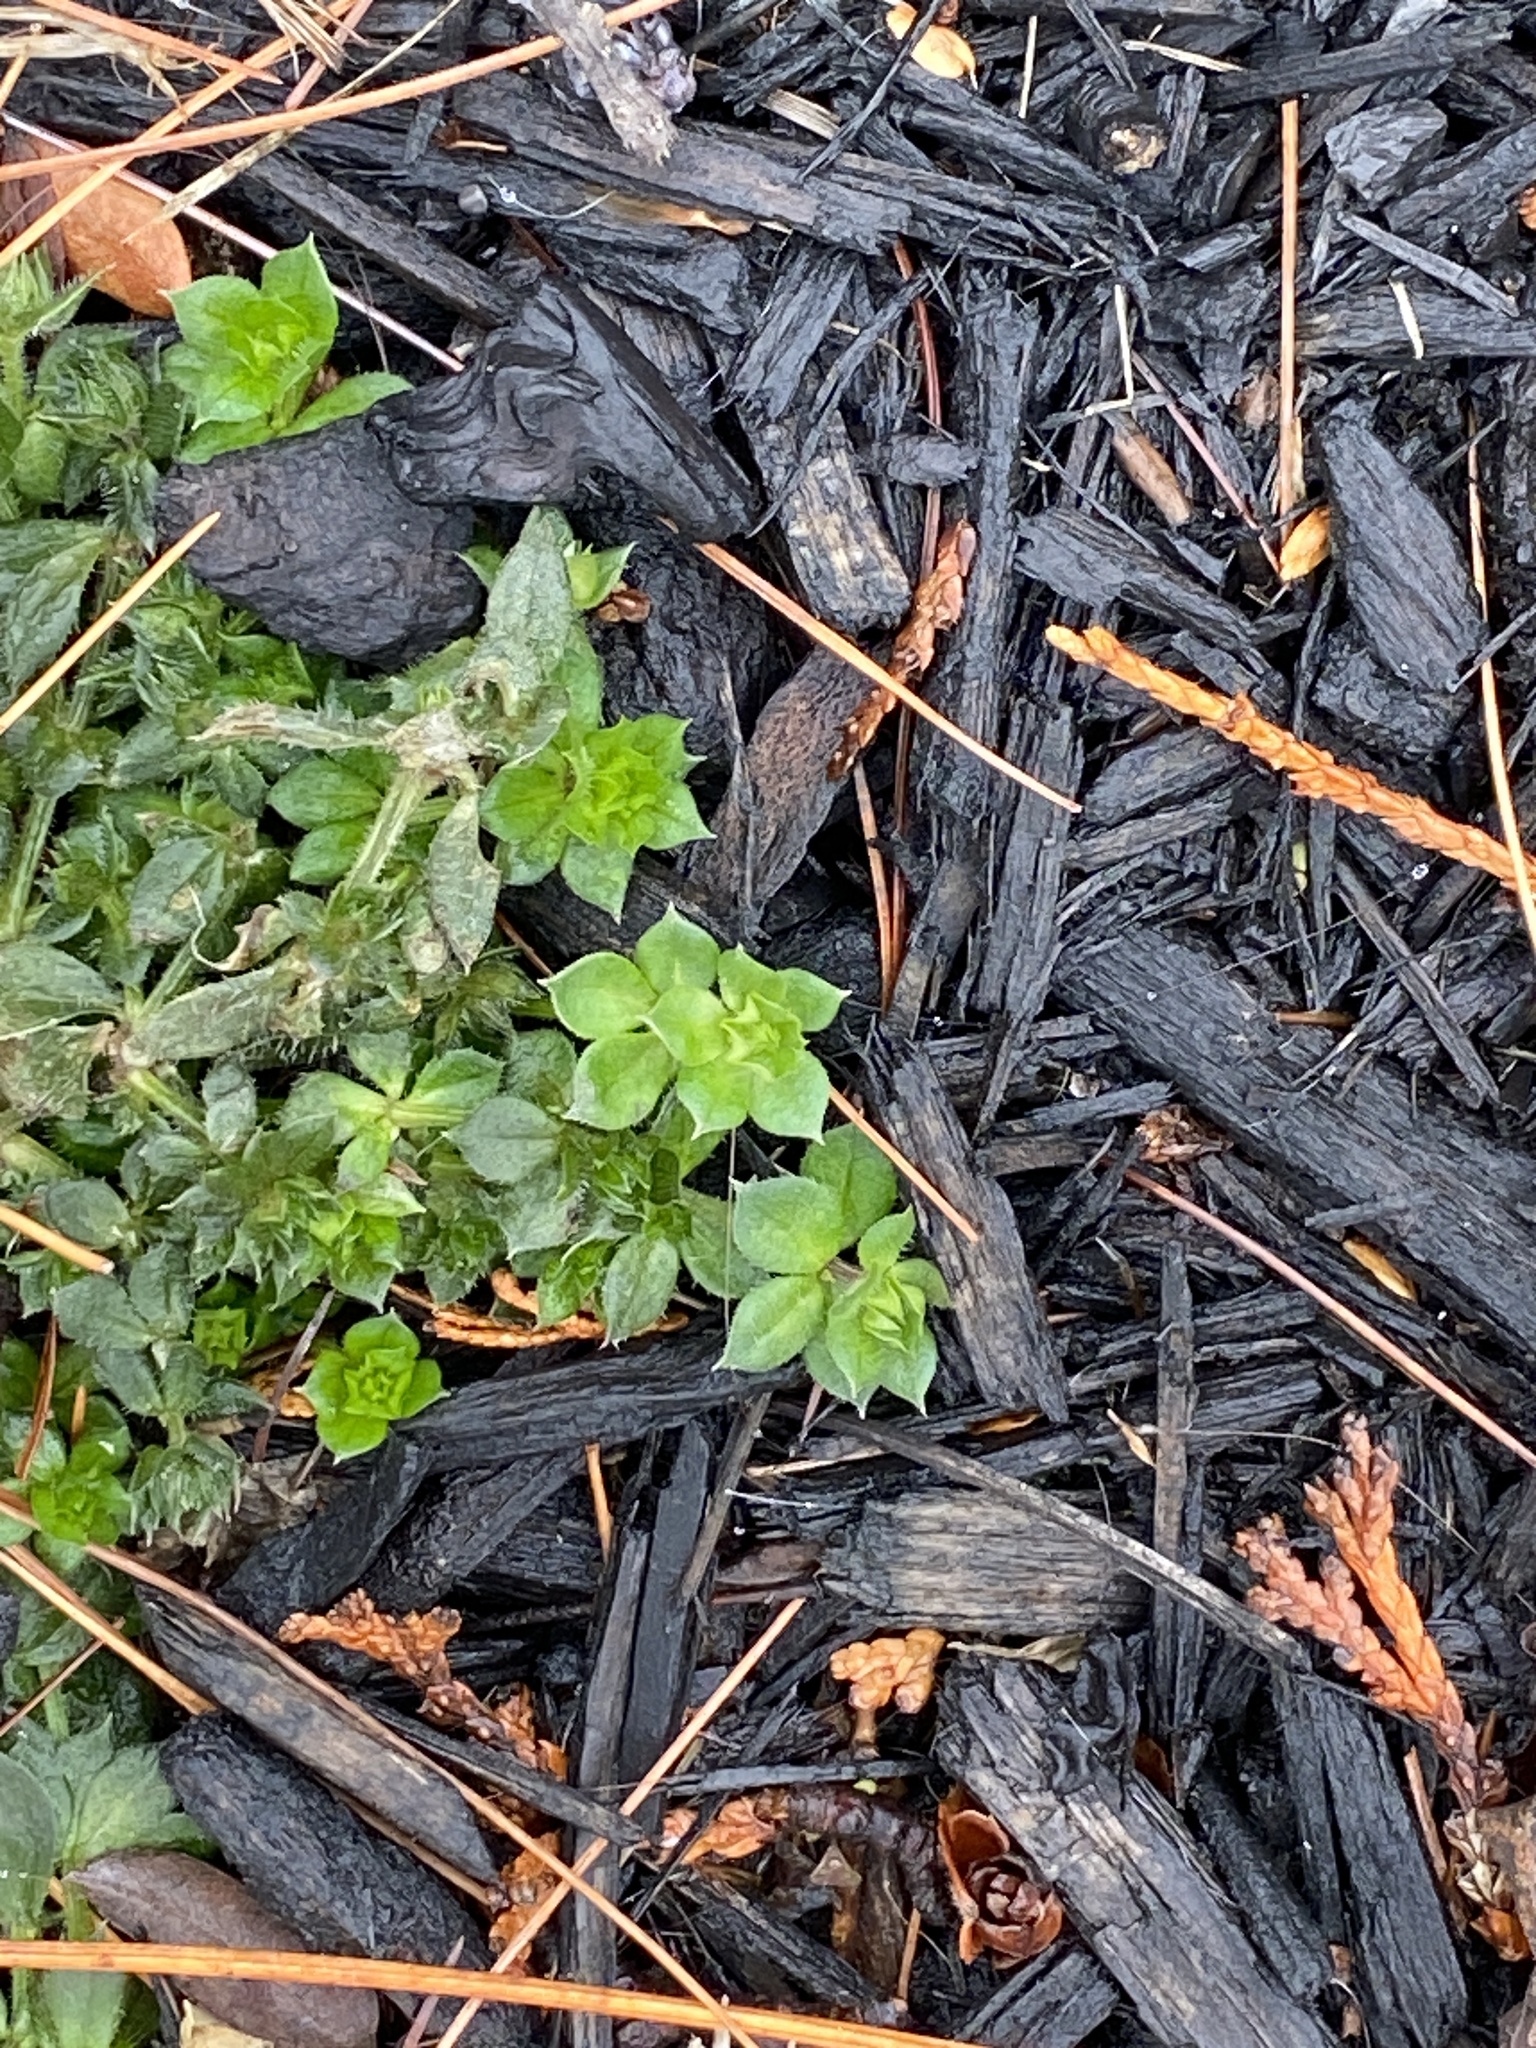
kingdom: Plantae
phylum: Tracheophyta
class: Magnoliopsida
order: Gentianales
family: Rubiaceae
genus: Sherardia
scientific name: Sherardia arvensis
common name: Field madder
